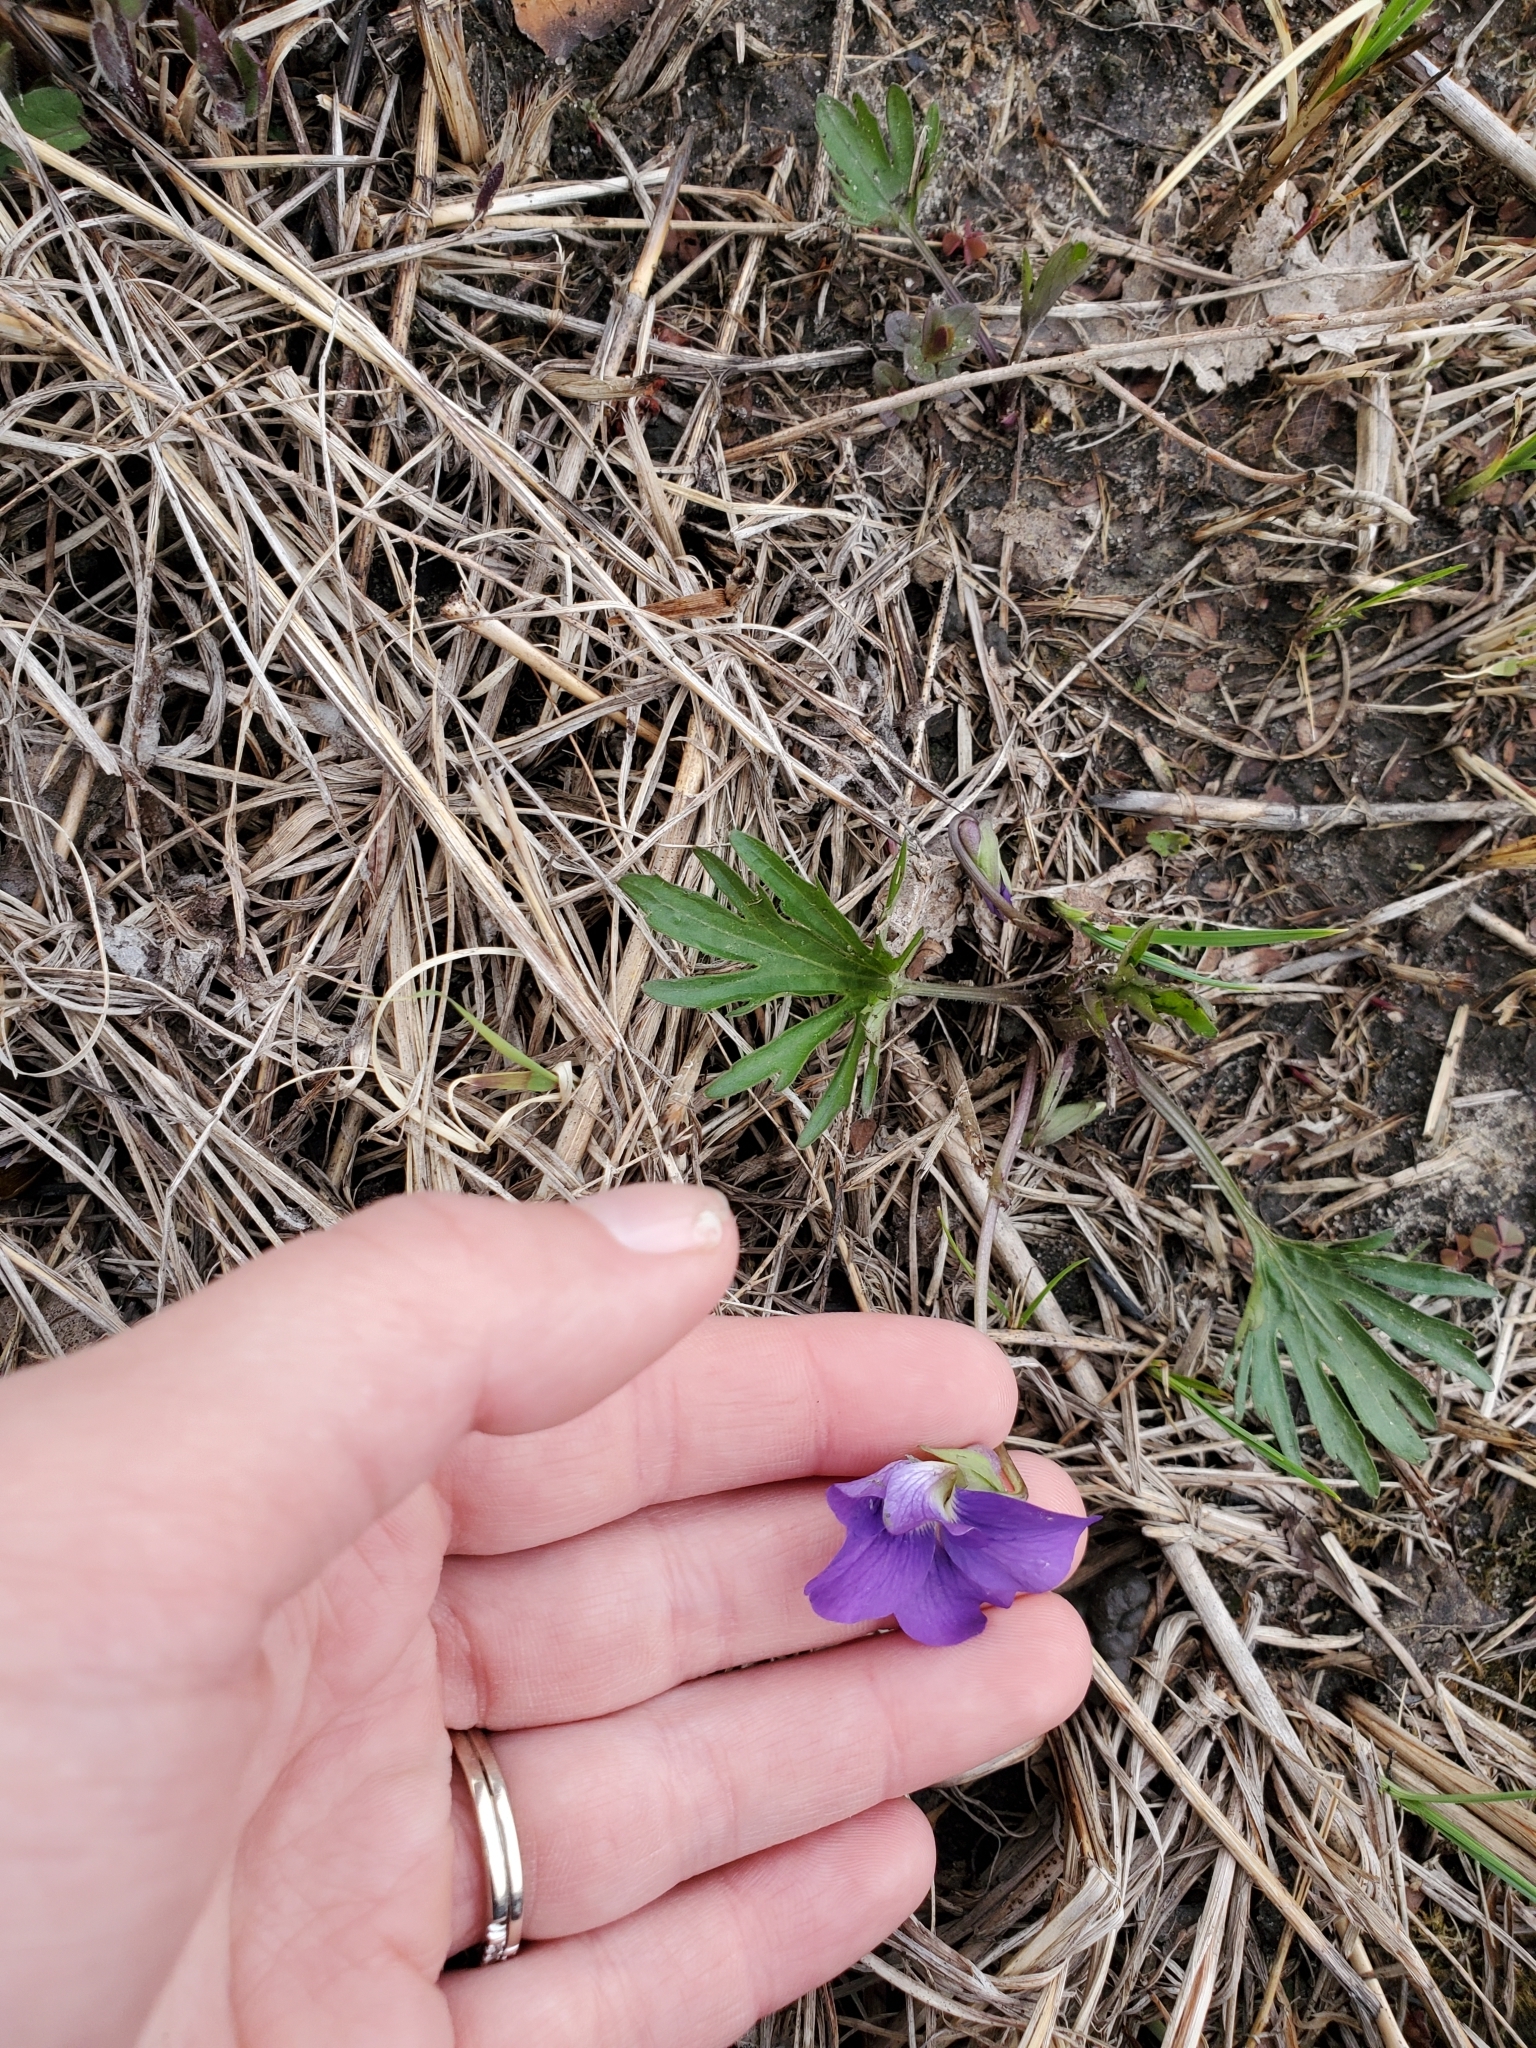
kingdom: Plantae
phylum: Tracheophyta
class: Magnoliopsida
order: Malpighiales
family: Violaceae
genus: Viola
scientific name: Viola pedatifida
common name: Prairie violet
